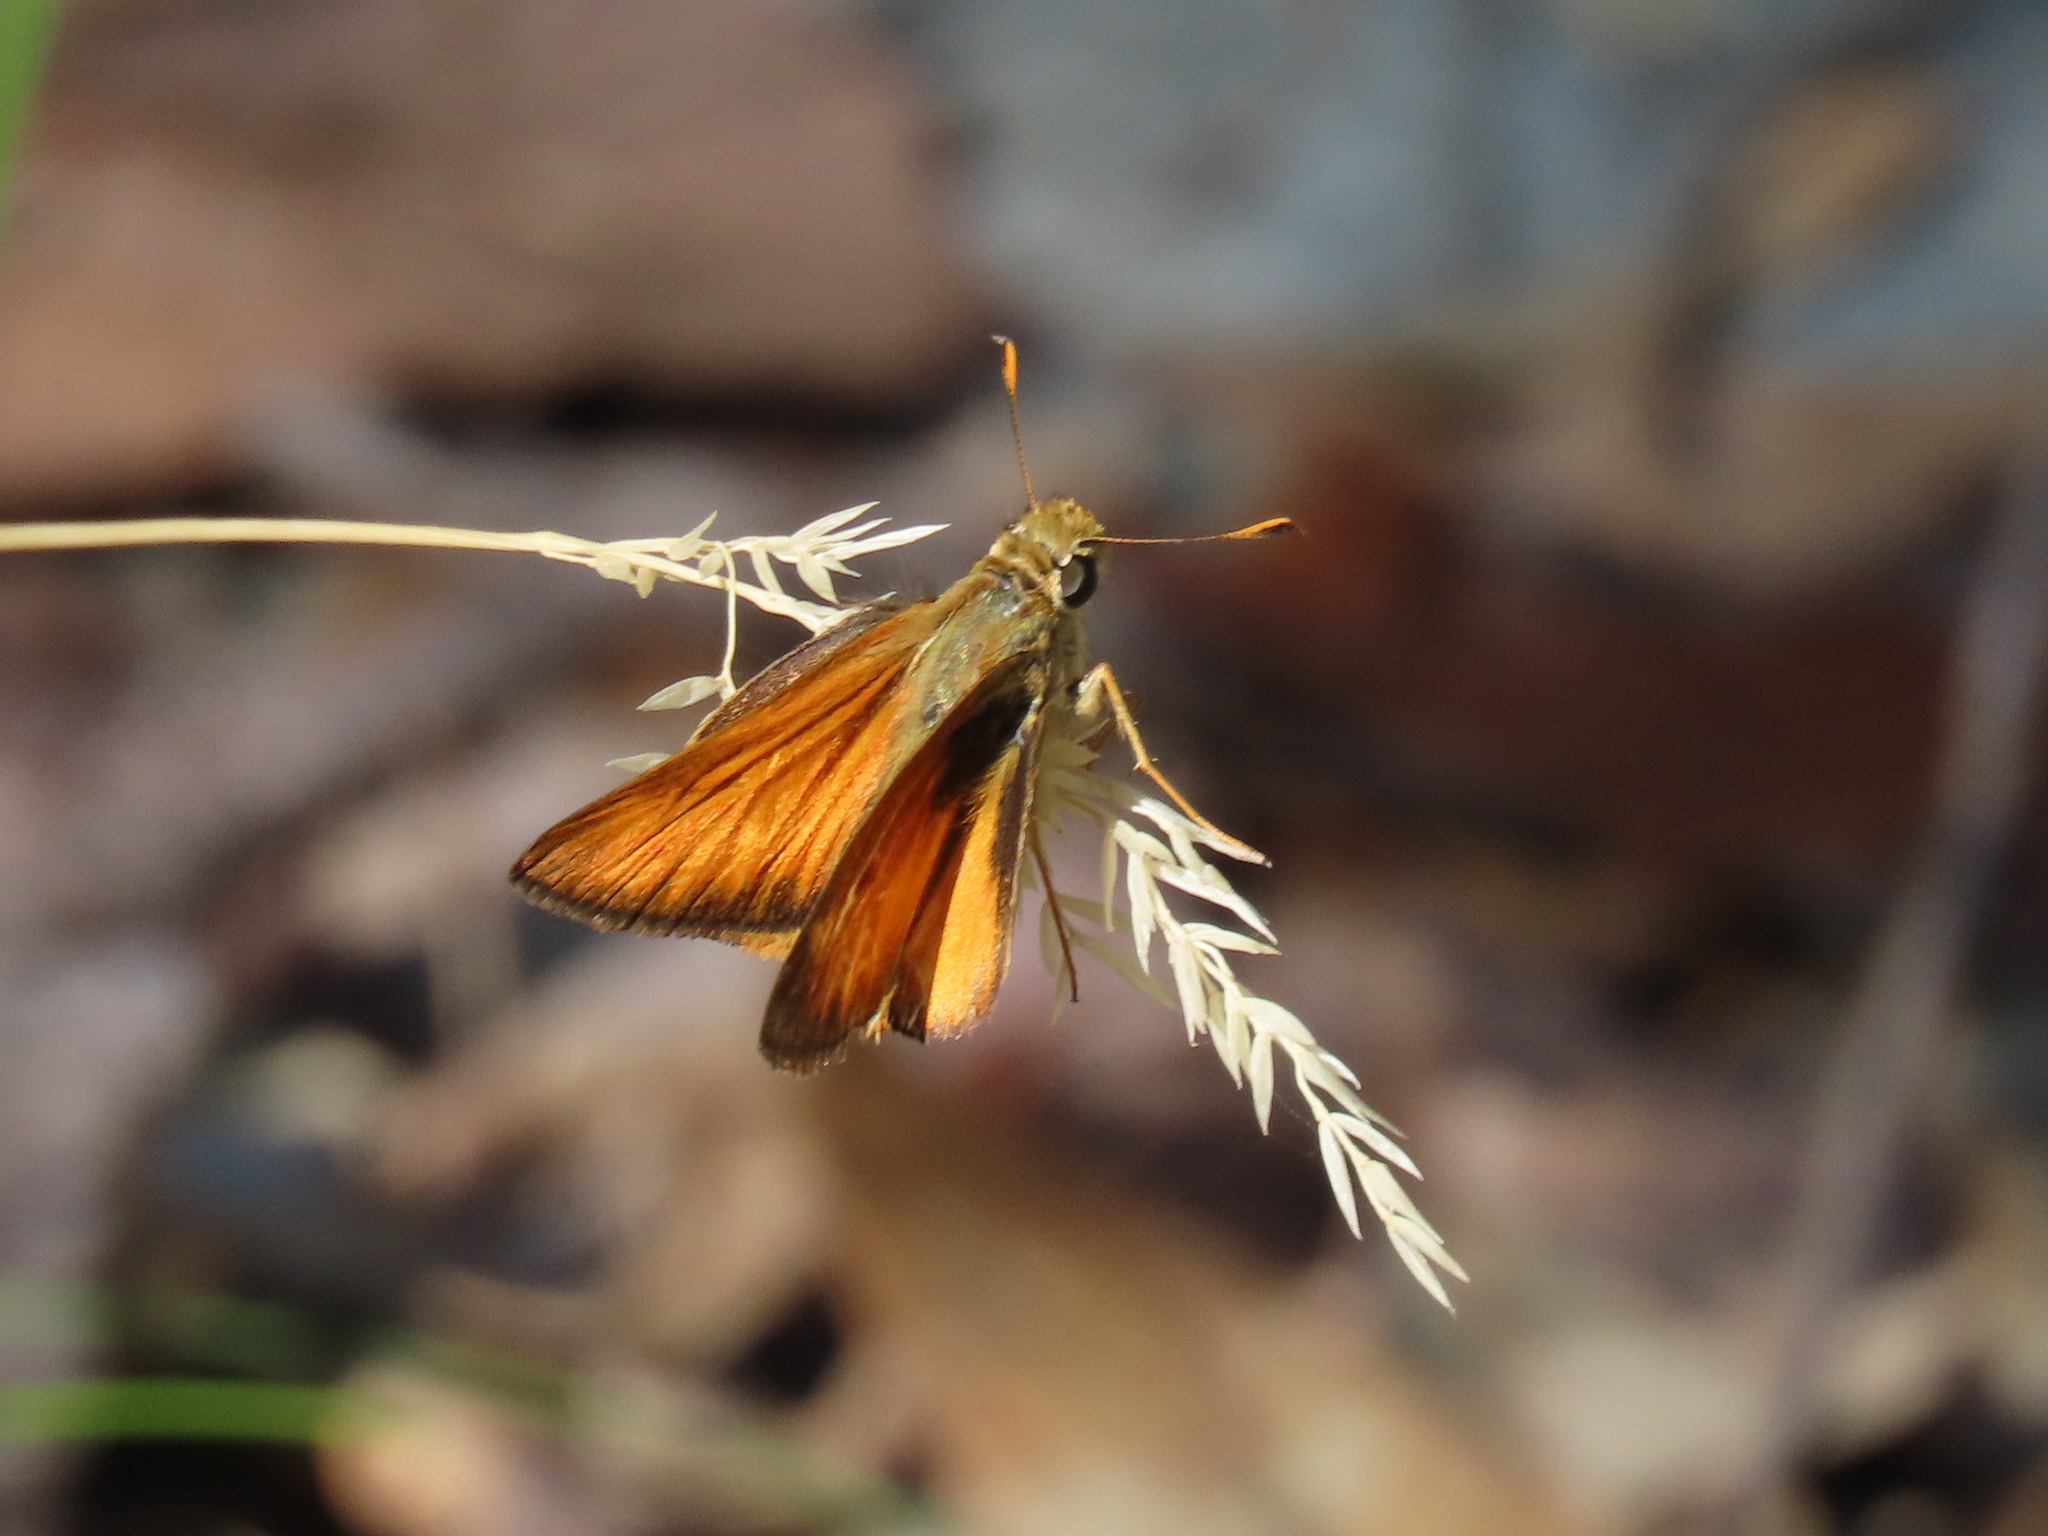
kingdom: Animalia
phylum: Arthropoda
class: Insecta
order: Lepidoptera
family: Hesperiidae
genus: Lon
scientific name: Lon taxiles
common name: Taxiles skipper
